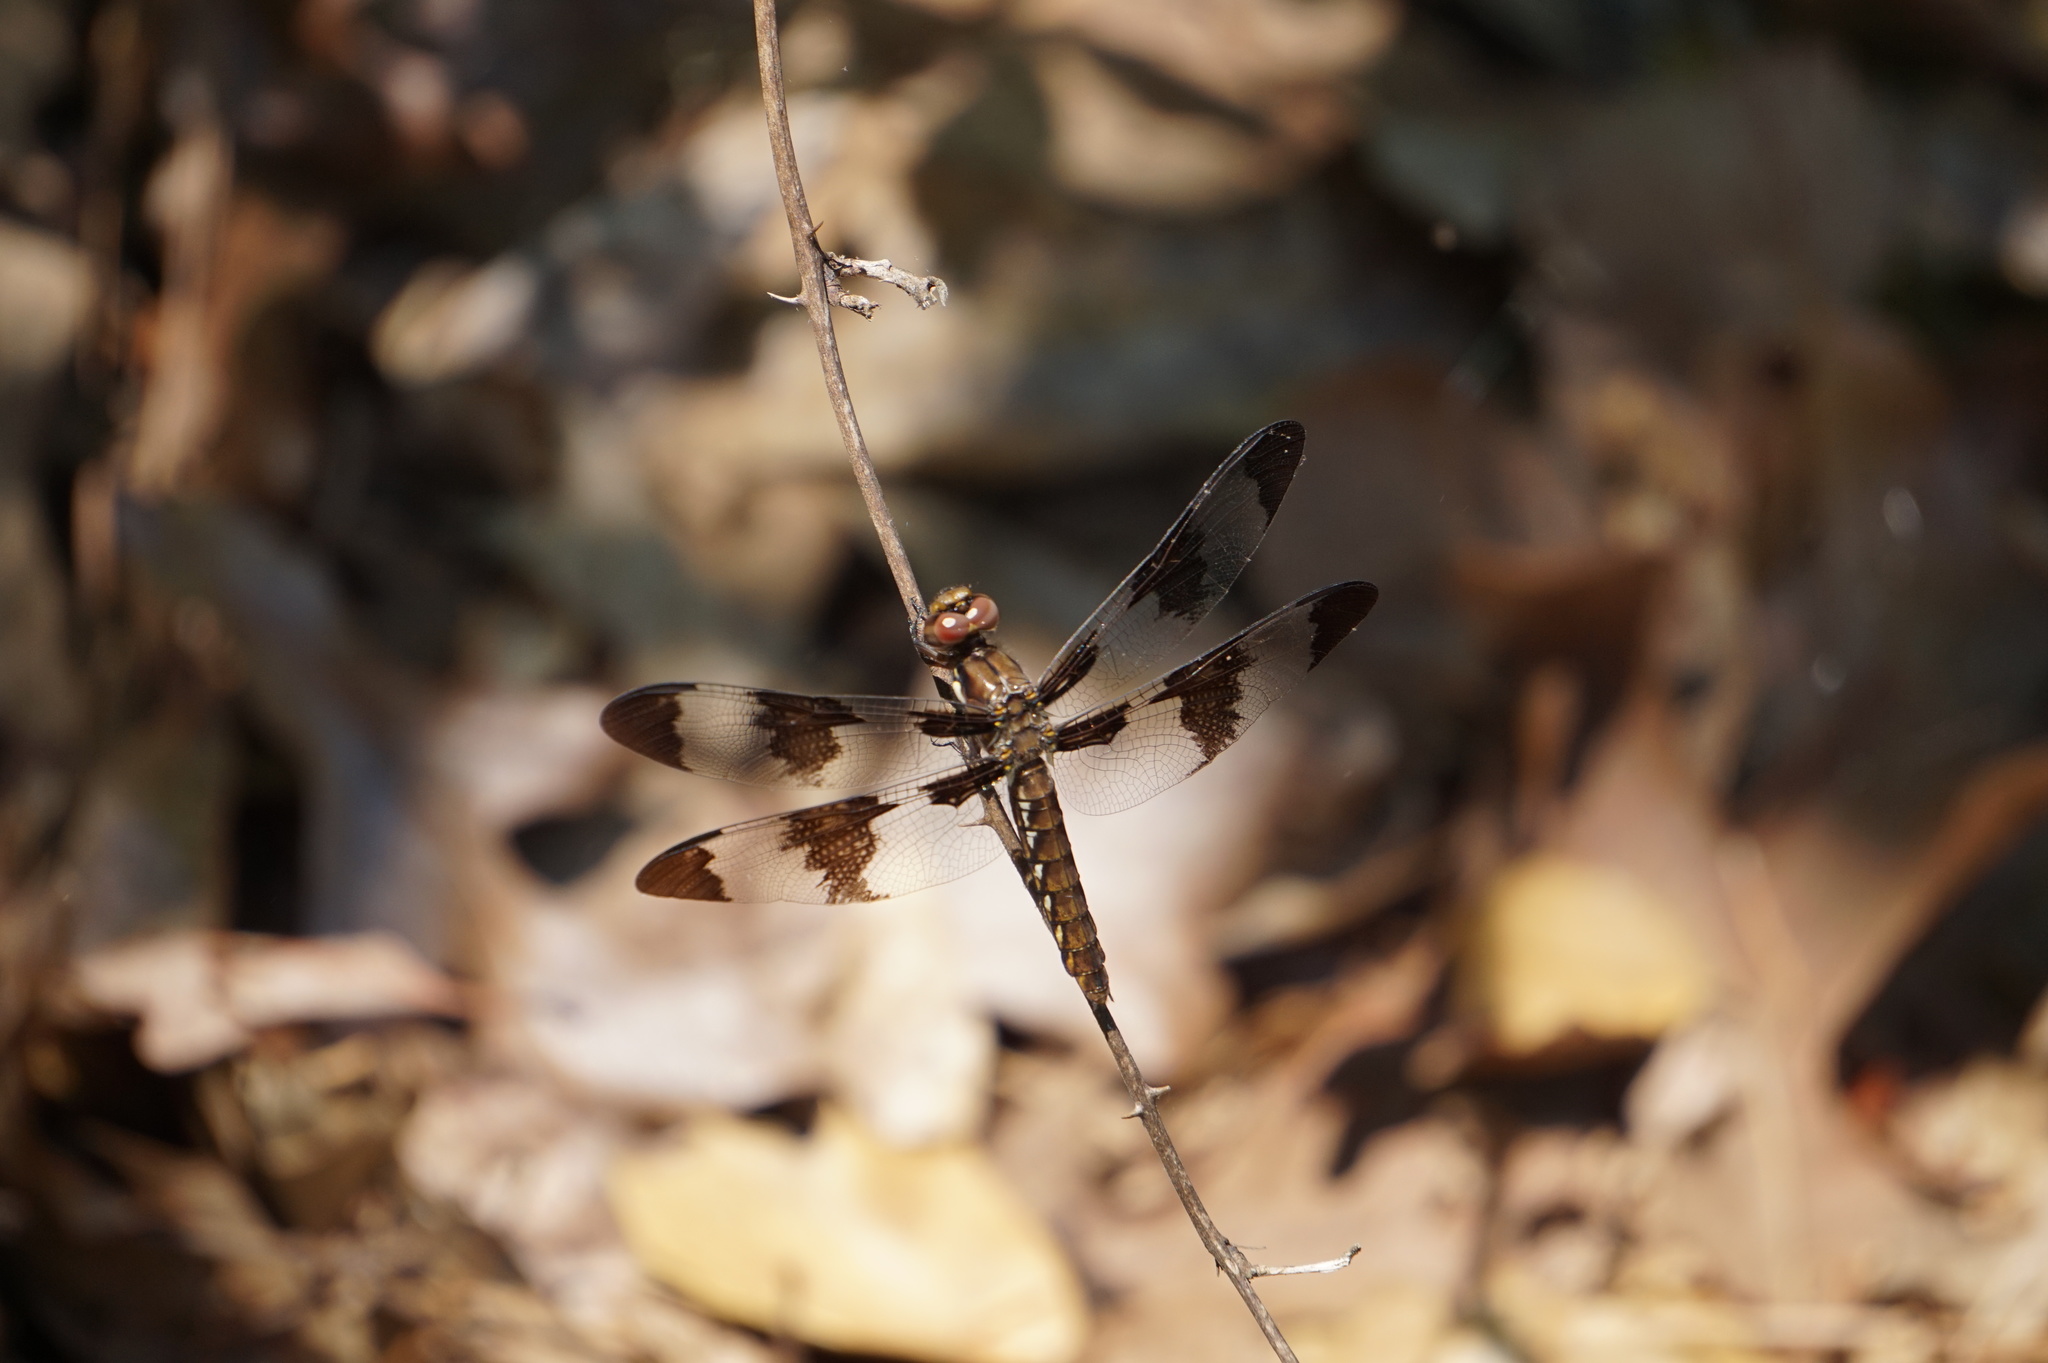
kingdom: Animalia
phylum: Arthropoda
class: Insecta
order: Odonata
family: Libellulidae
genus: Plathemis
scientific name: Plathemis lydia
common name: Common whitetail
